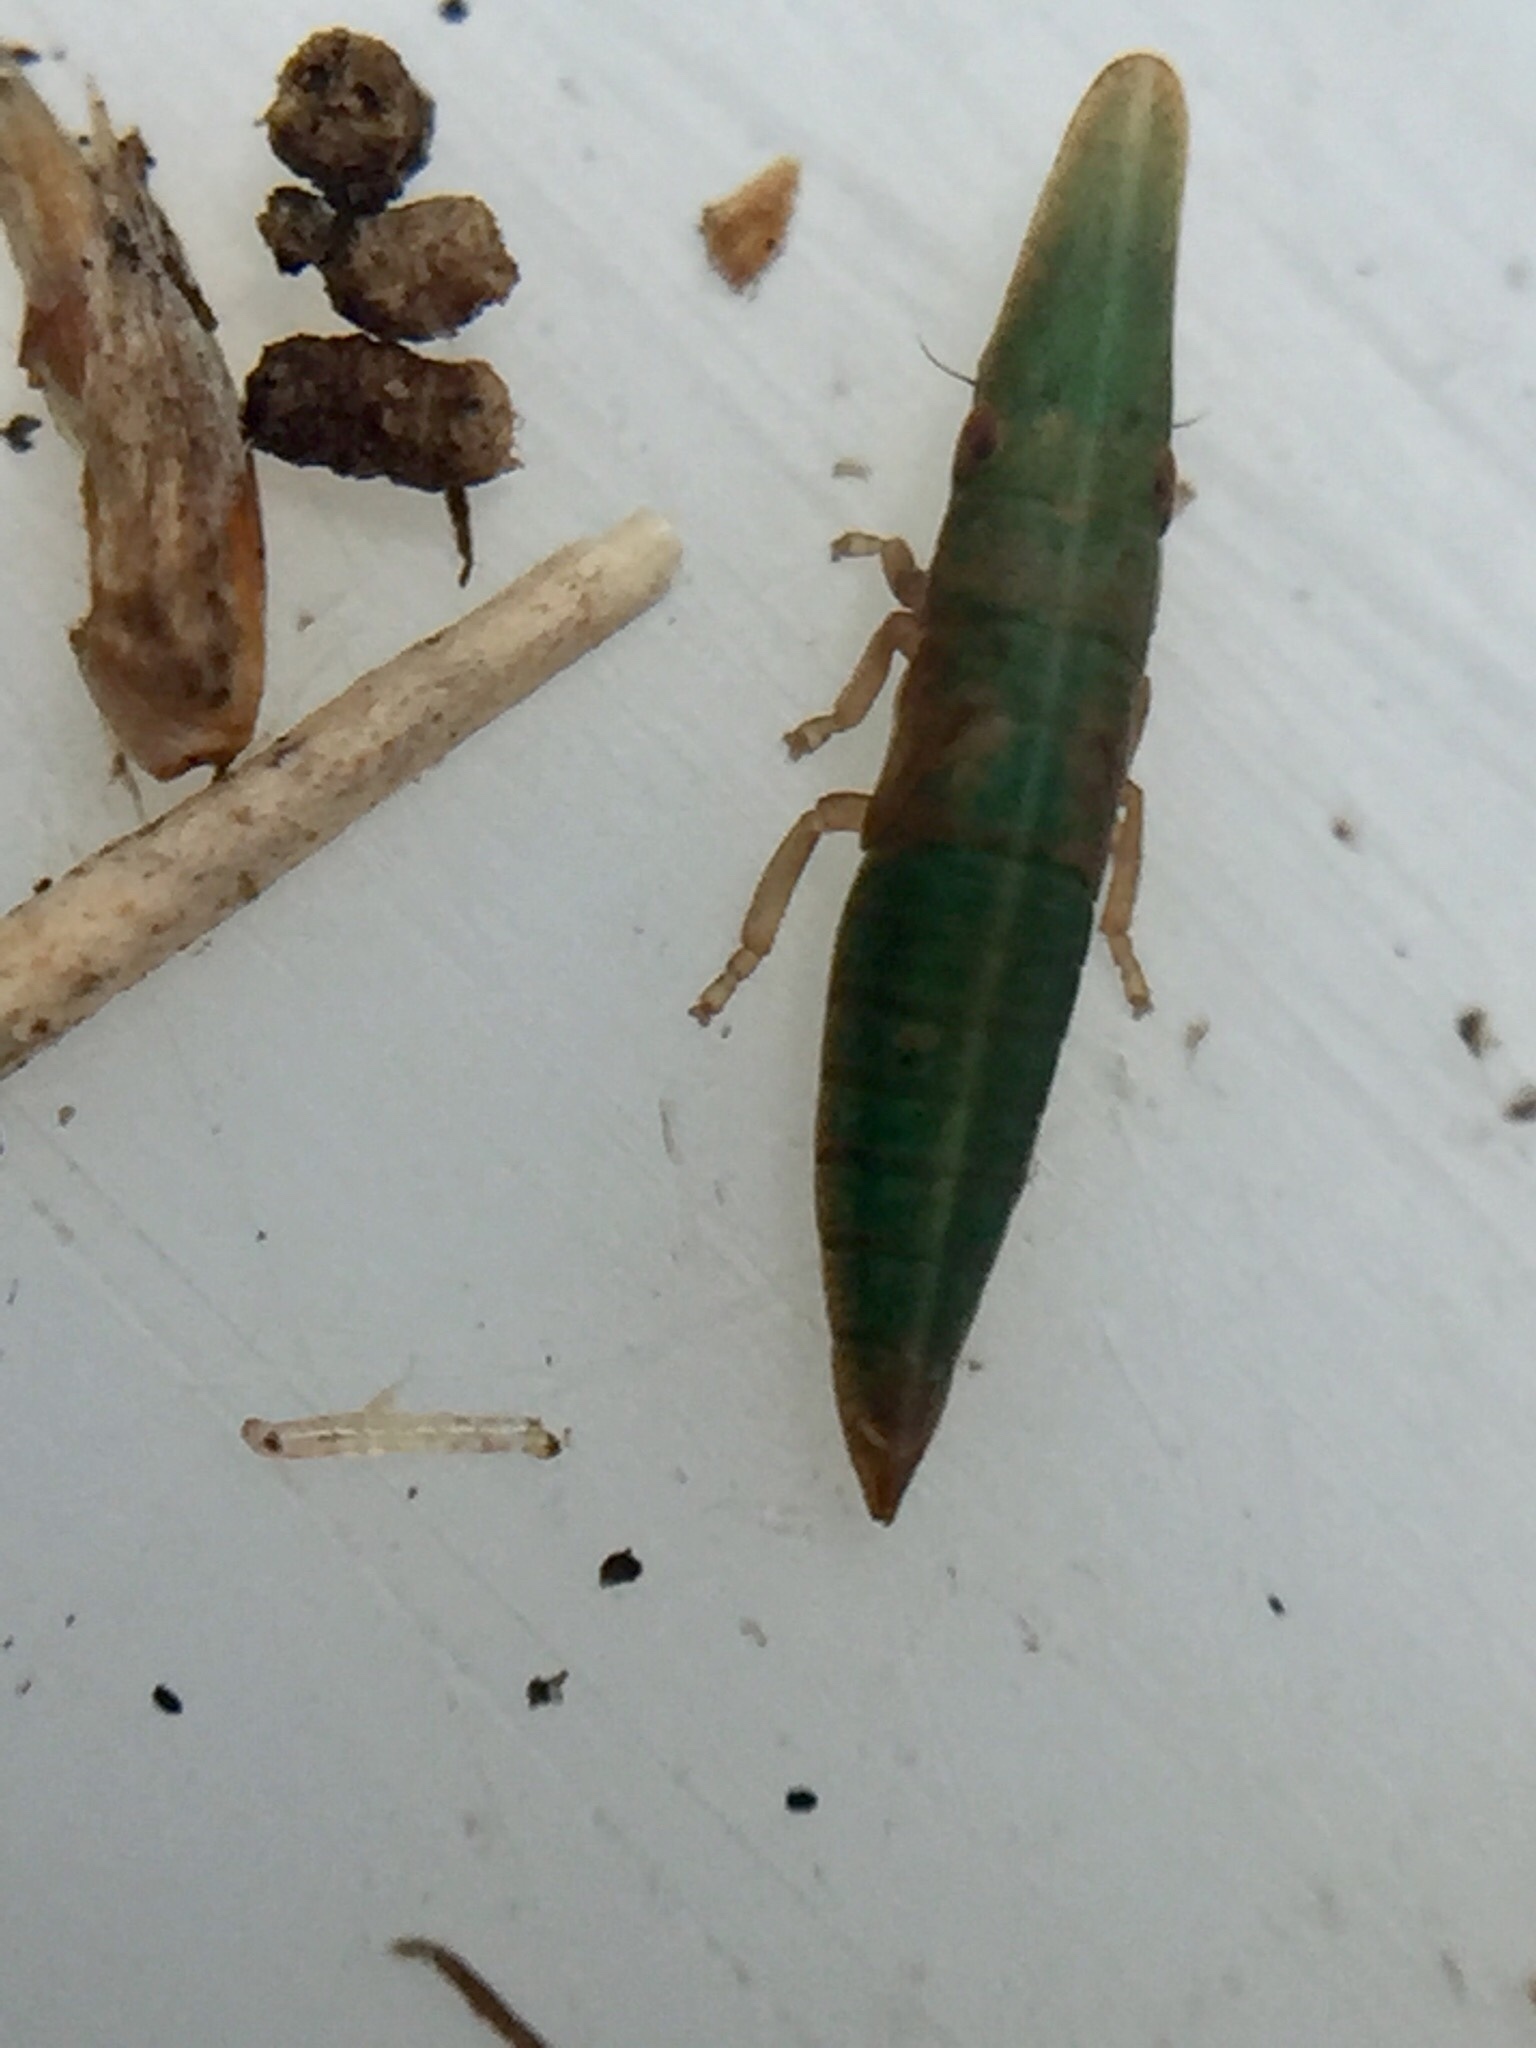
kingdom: Animalia
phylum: Arthropoda
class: Insecta
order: Hemiptera
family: Cicadellidae
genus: Paracephaleus
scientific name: Paracephaleus hudsoni
